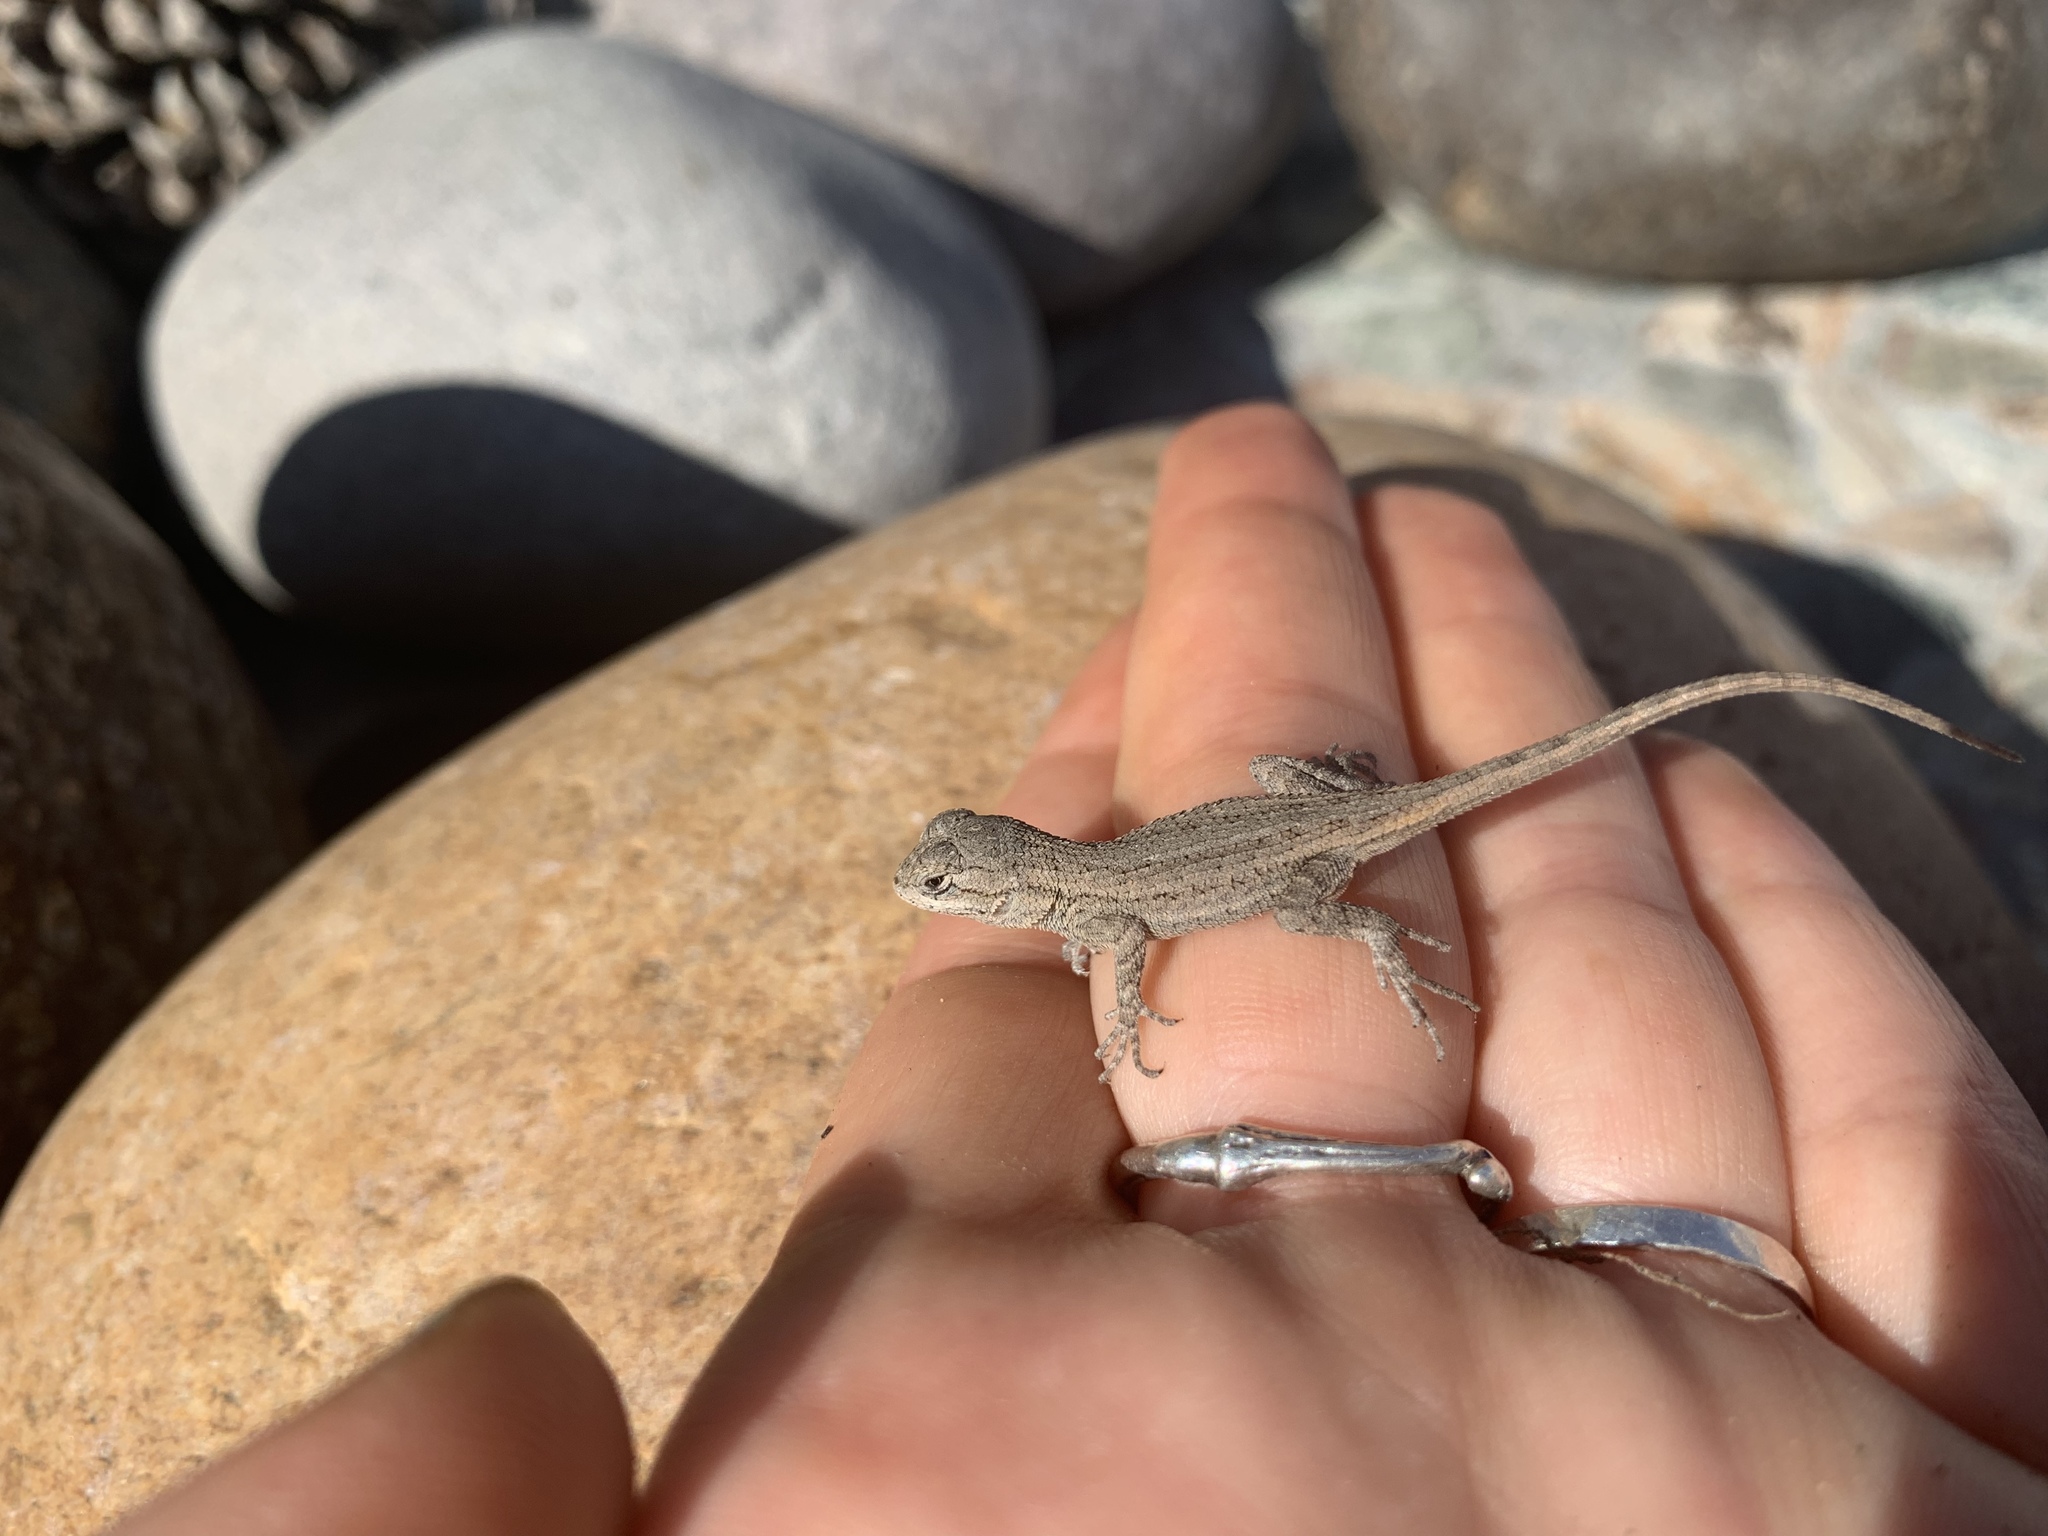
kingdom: Animalia
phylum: Chordata
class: Squamata
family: Phrynosomatidae
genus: Sceloporus
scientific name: Sceloporus occidentalis
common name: Western fence lizard
